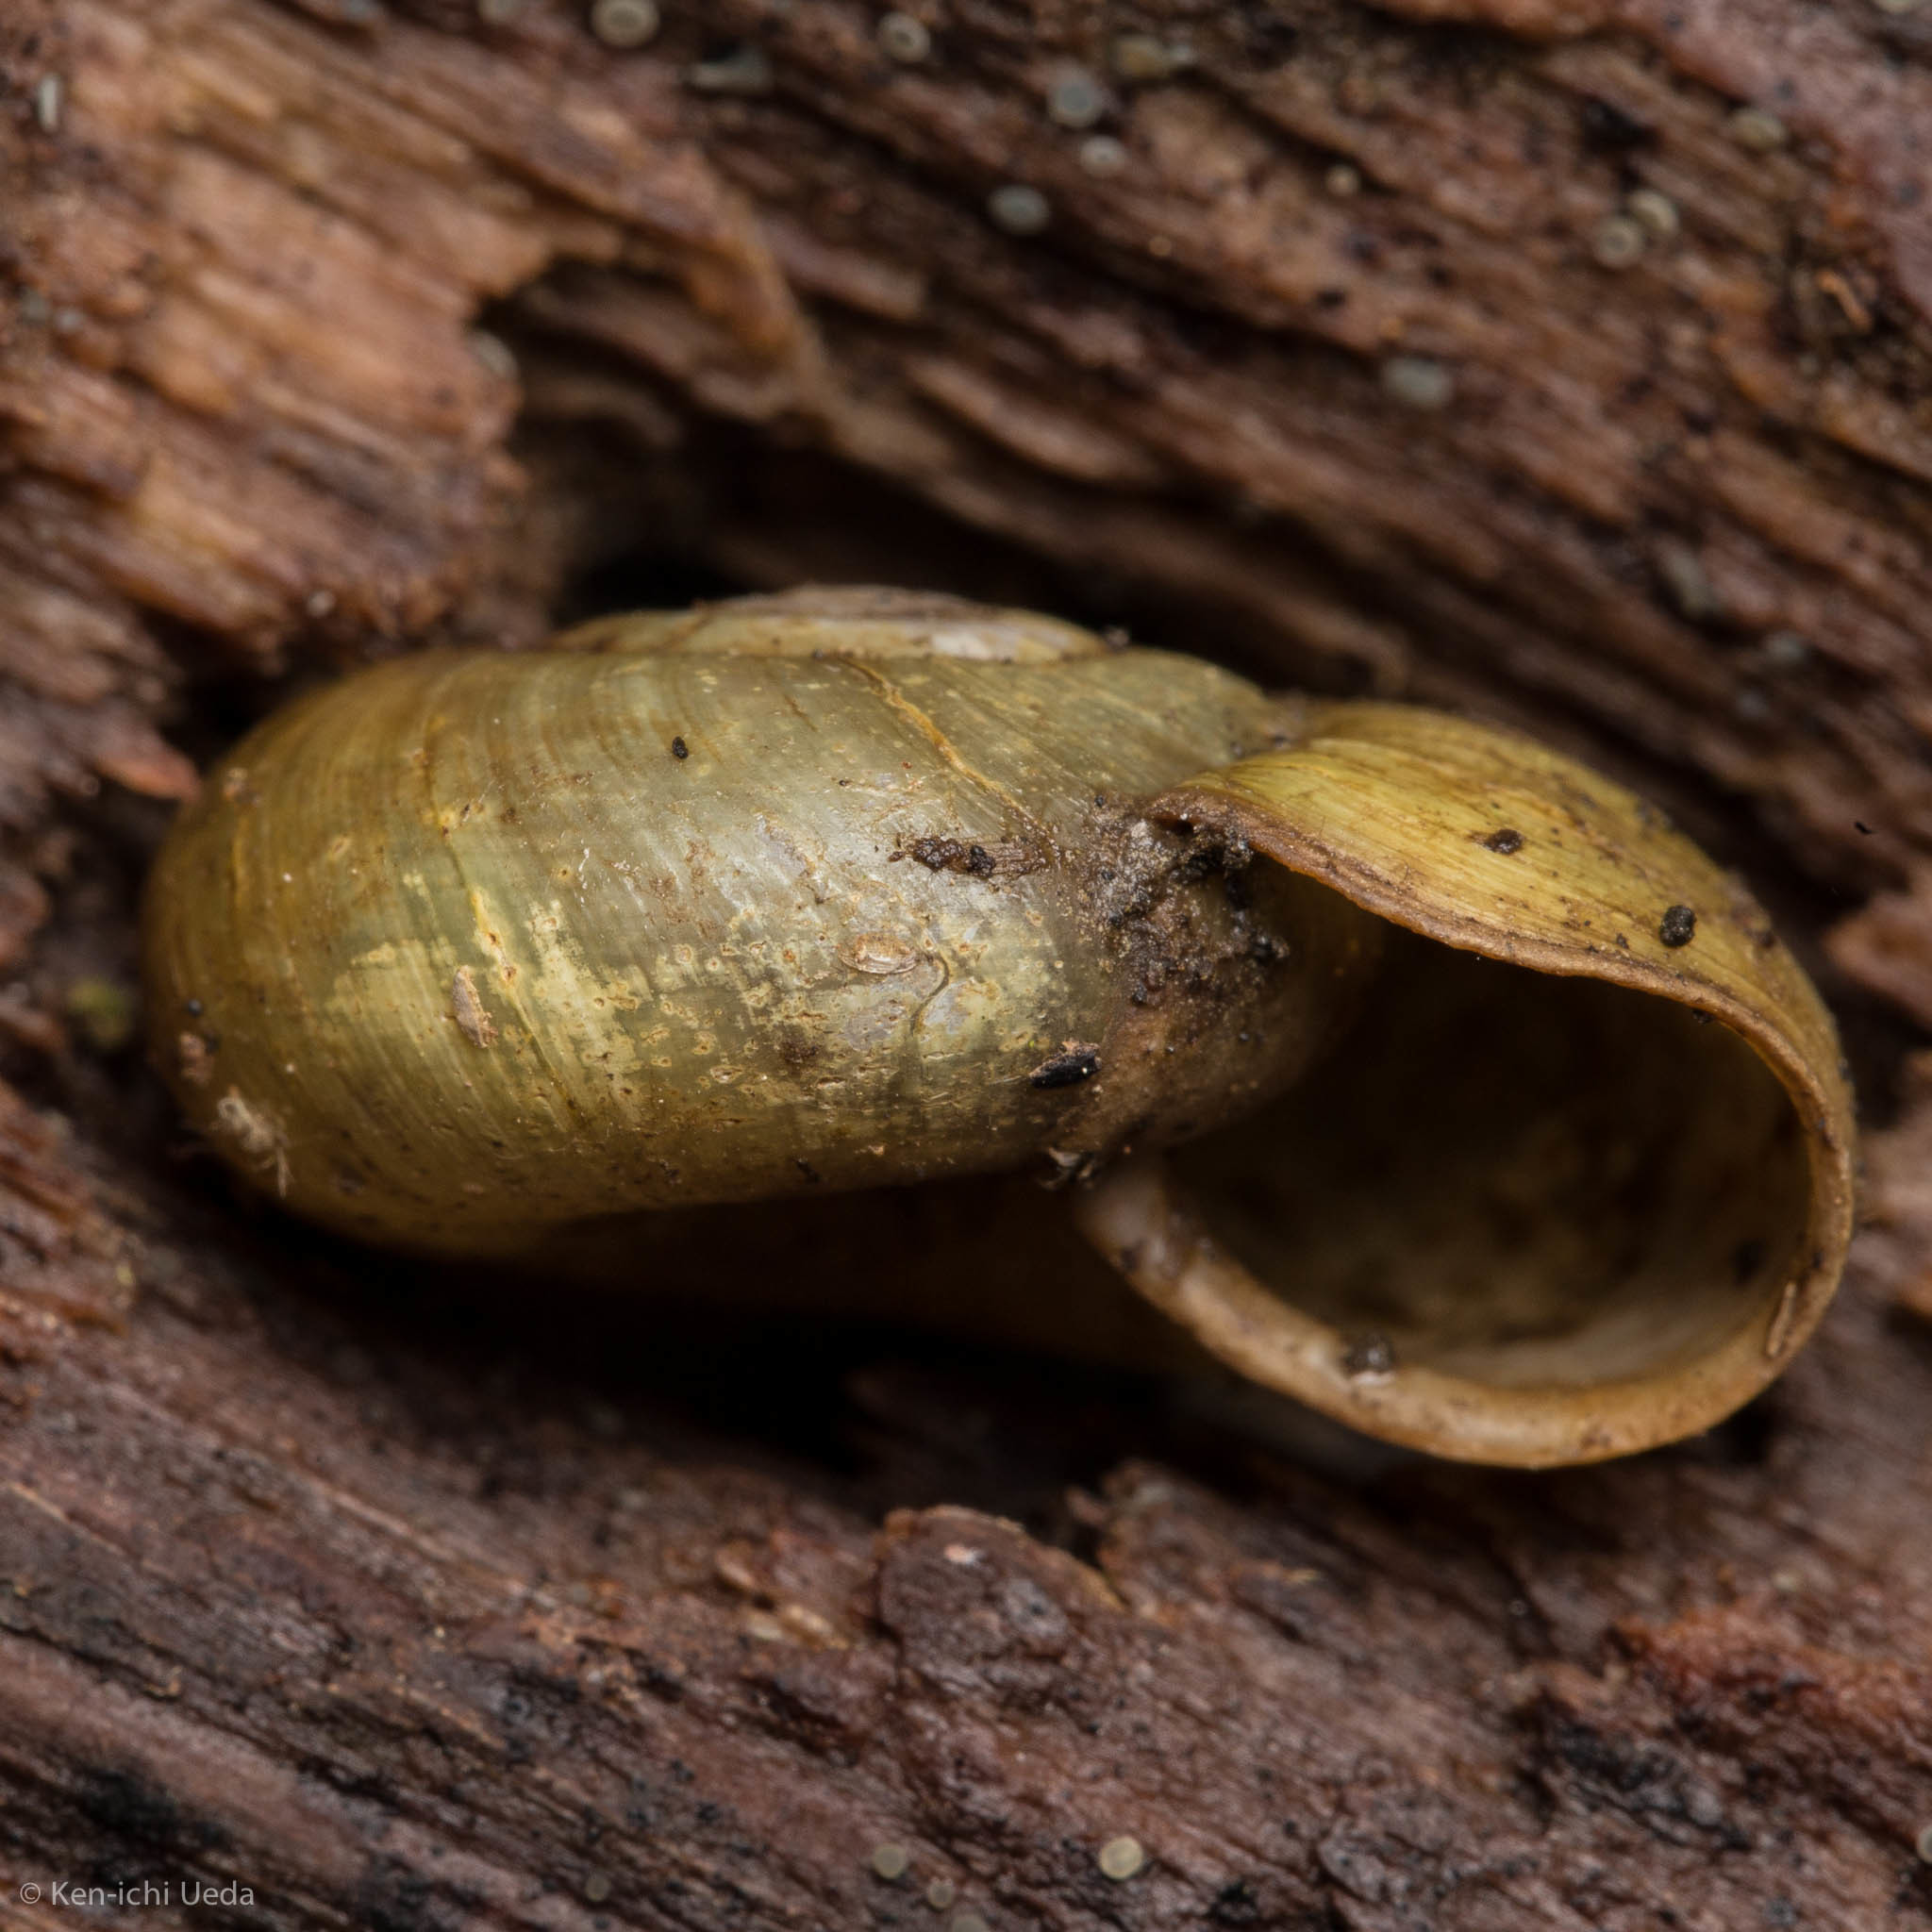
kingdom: Animalia
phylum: Mollusca
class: Gastropoda
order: Stylommatophora
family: Haplotrematidae
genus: Haplotrema
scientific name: Haplotrema minimum
